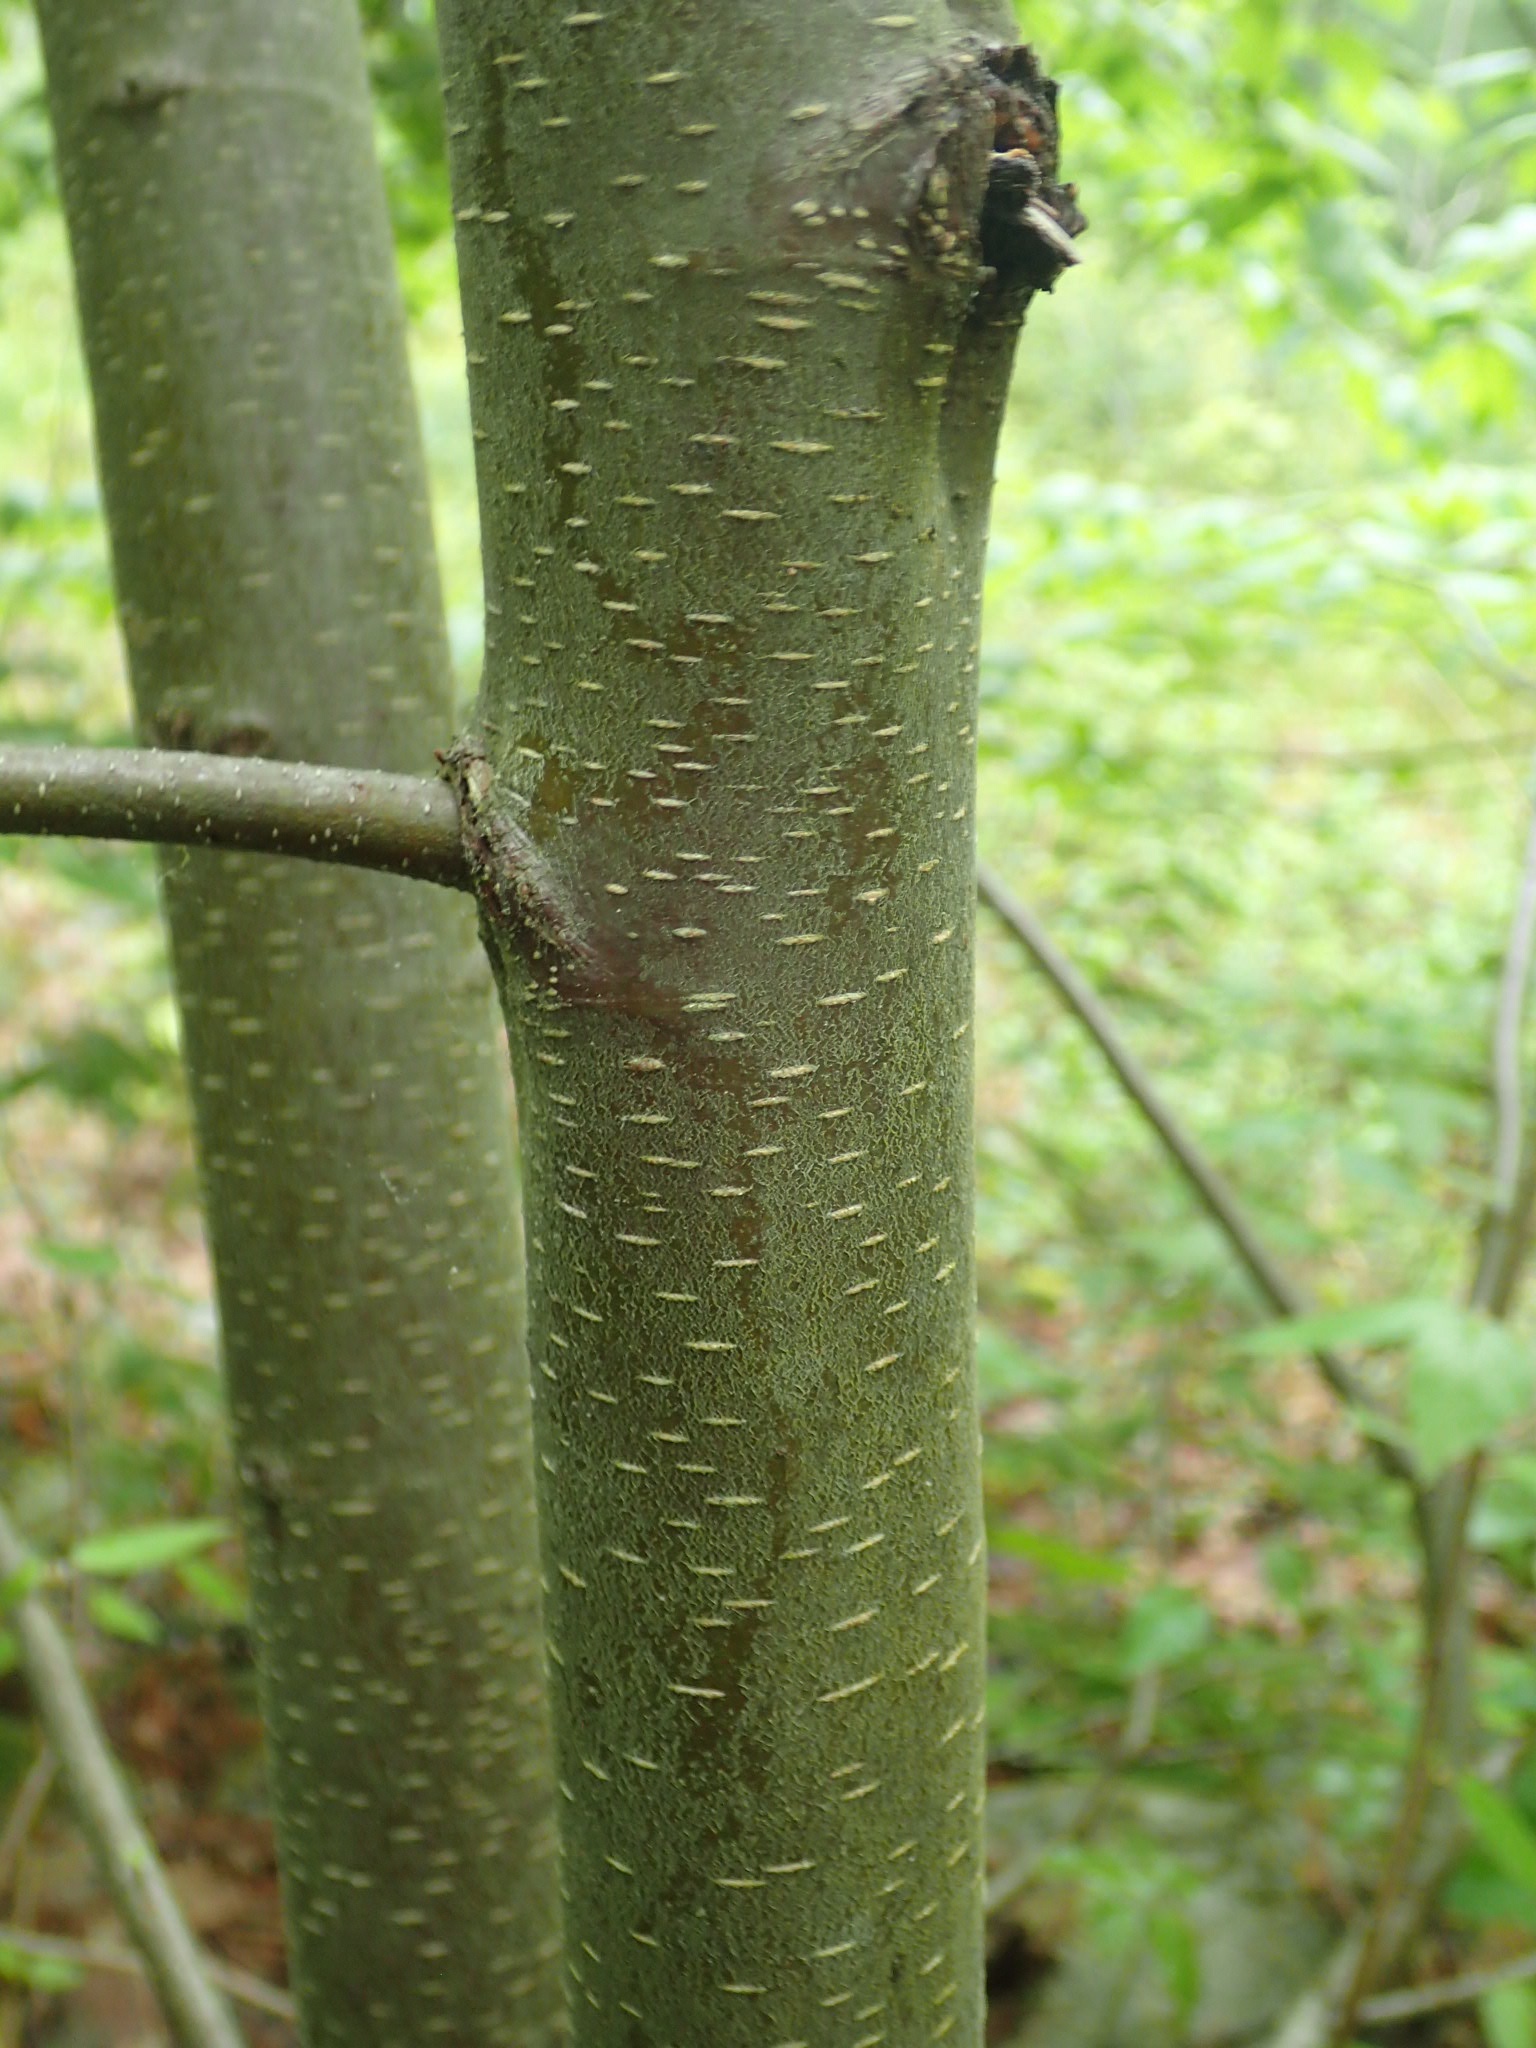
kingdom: Plantae
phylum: Tracheophyta
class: Magnoliopsida
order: Fagales
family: Betulaceae
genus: Betula
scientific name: Betula lenta
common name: Black birch
